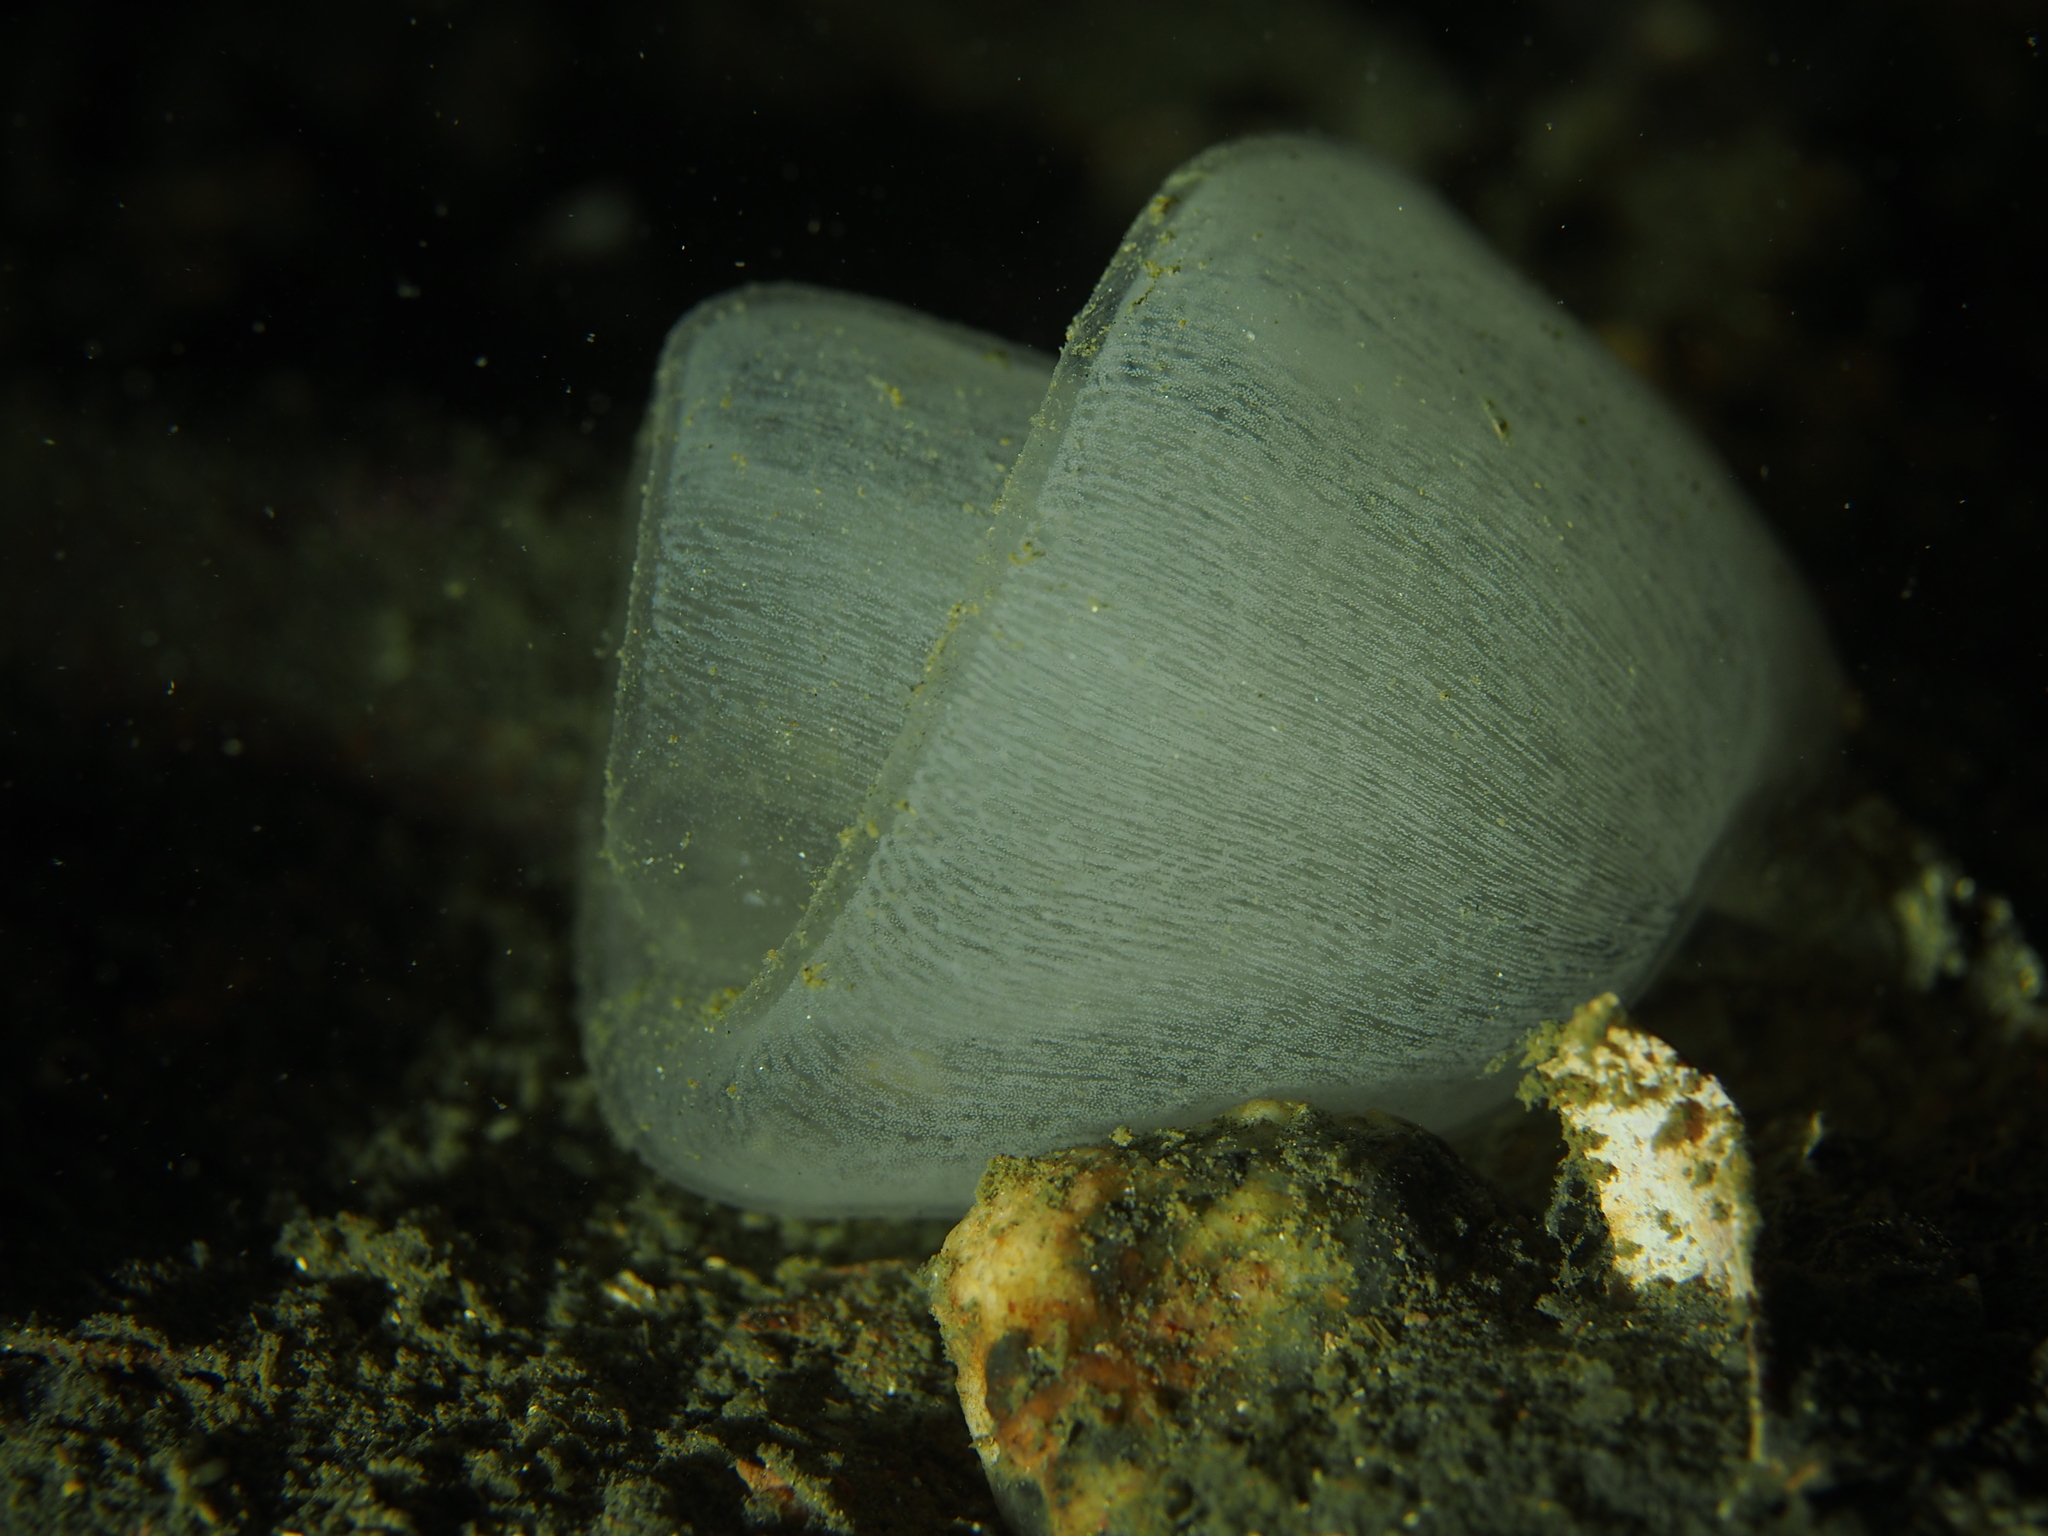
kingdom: Animalia
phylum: Mollusca
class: Gastropoda
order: Pleurobranchida
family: Pleurobranchidae
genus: Pleurobranchus
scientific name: Pleurobranchus membranaceus
